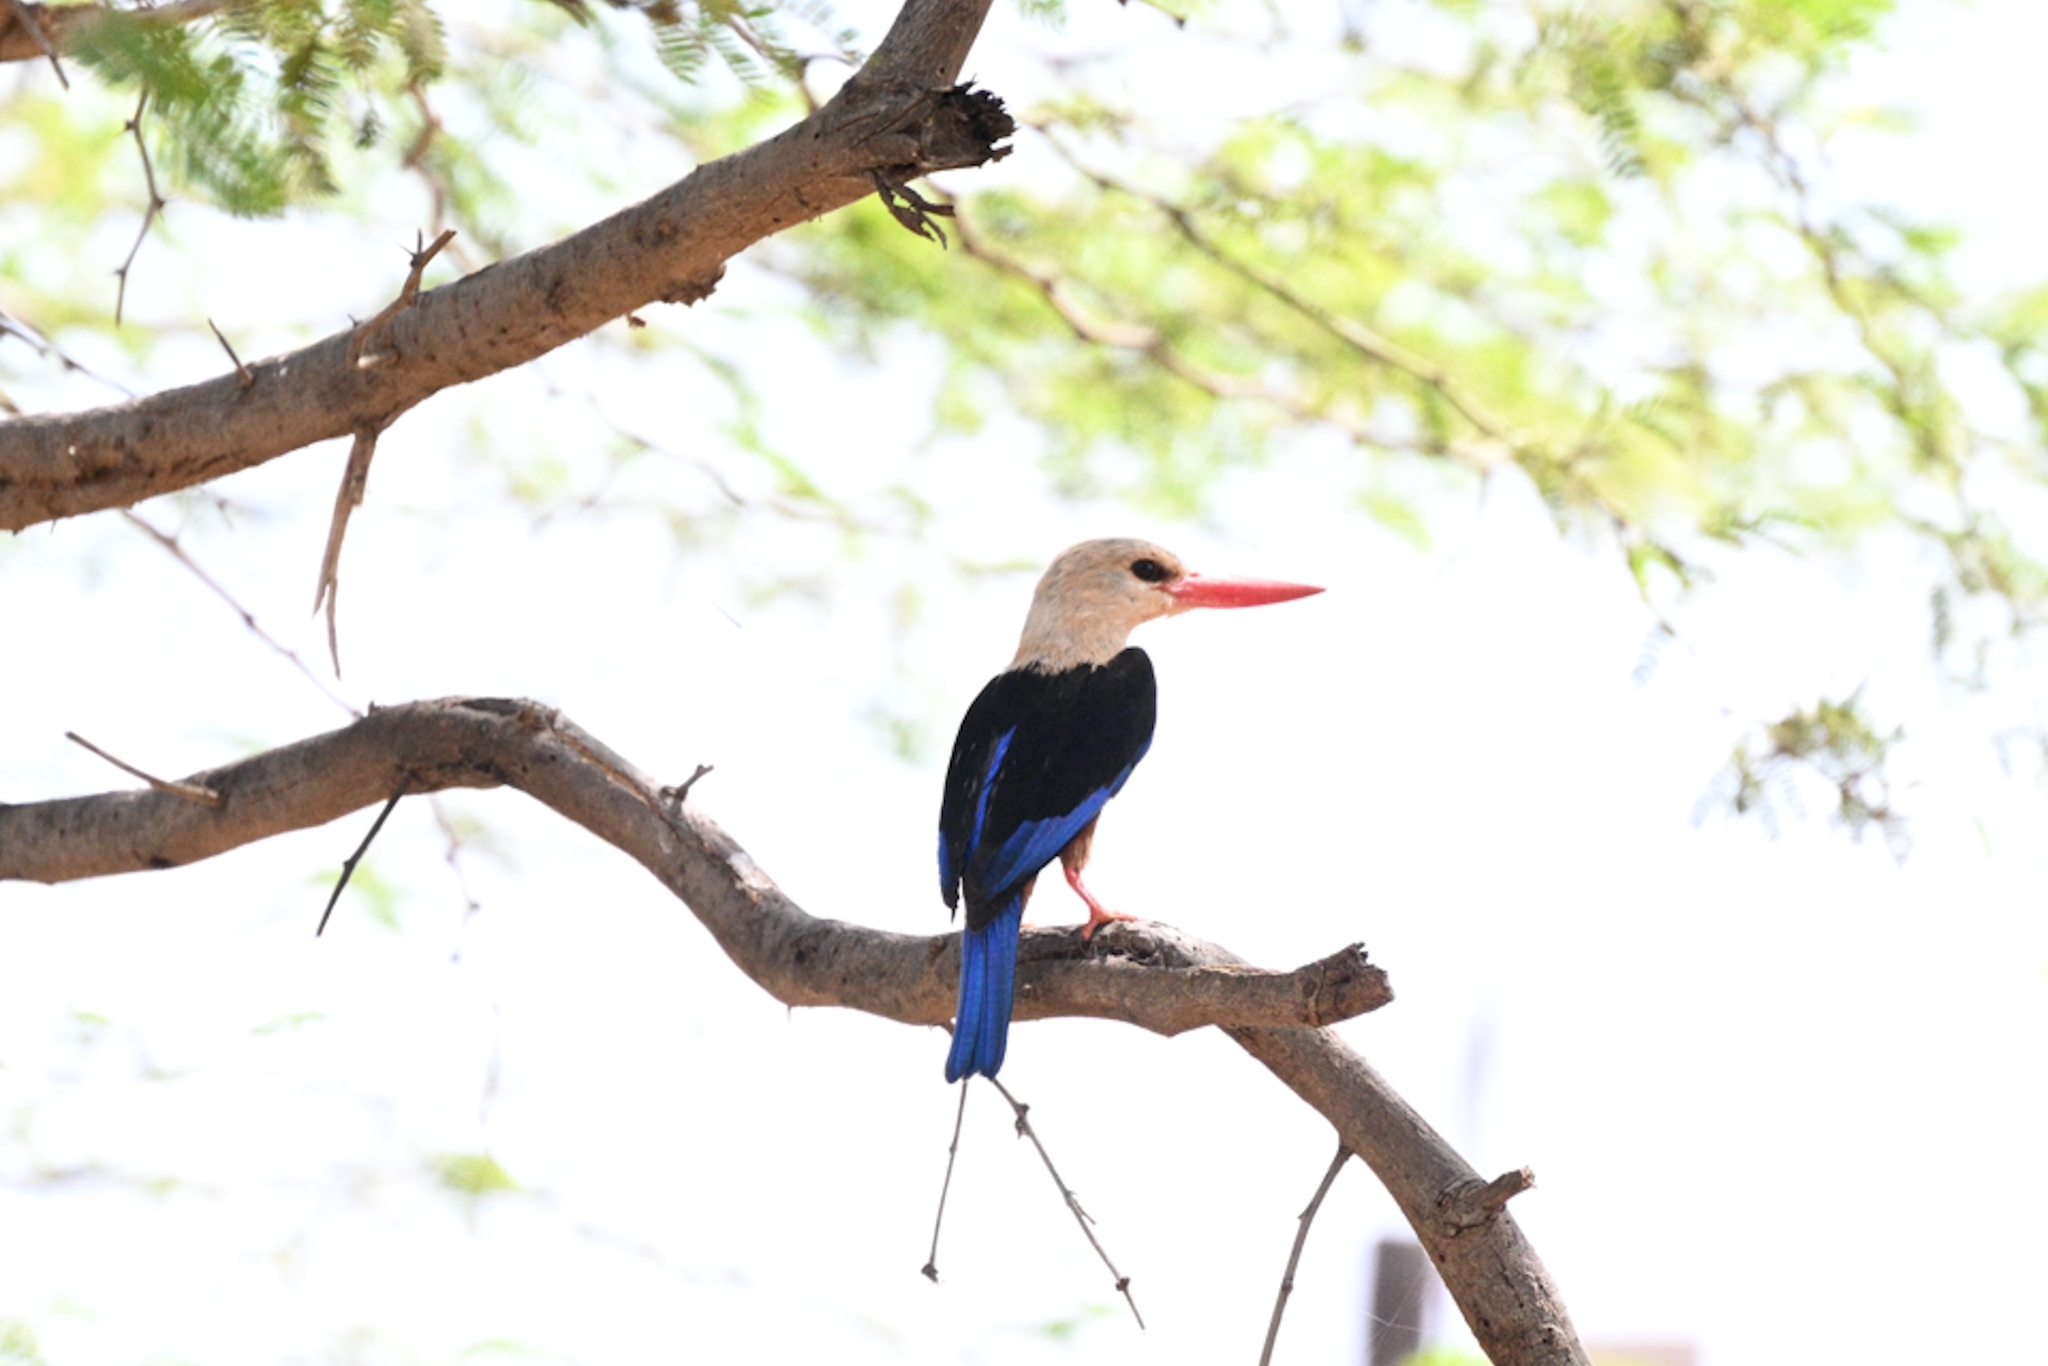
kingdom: Animalia
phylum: Chordata
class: Aves
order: Coraciiformes
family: Alcedinidae
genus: Halcyon
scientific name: Halcyon leucocephala
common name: Grey-headed kingfisher
